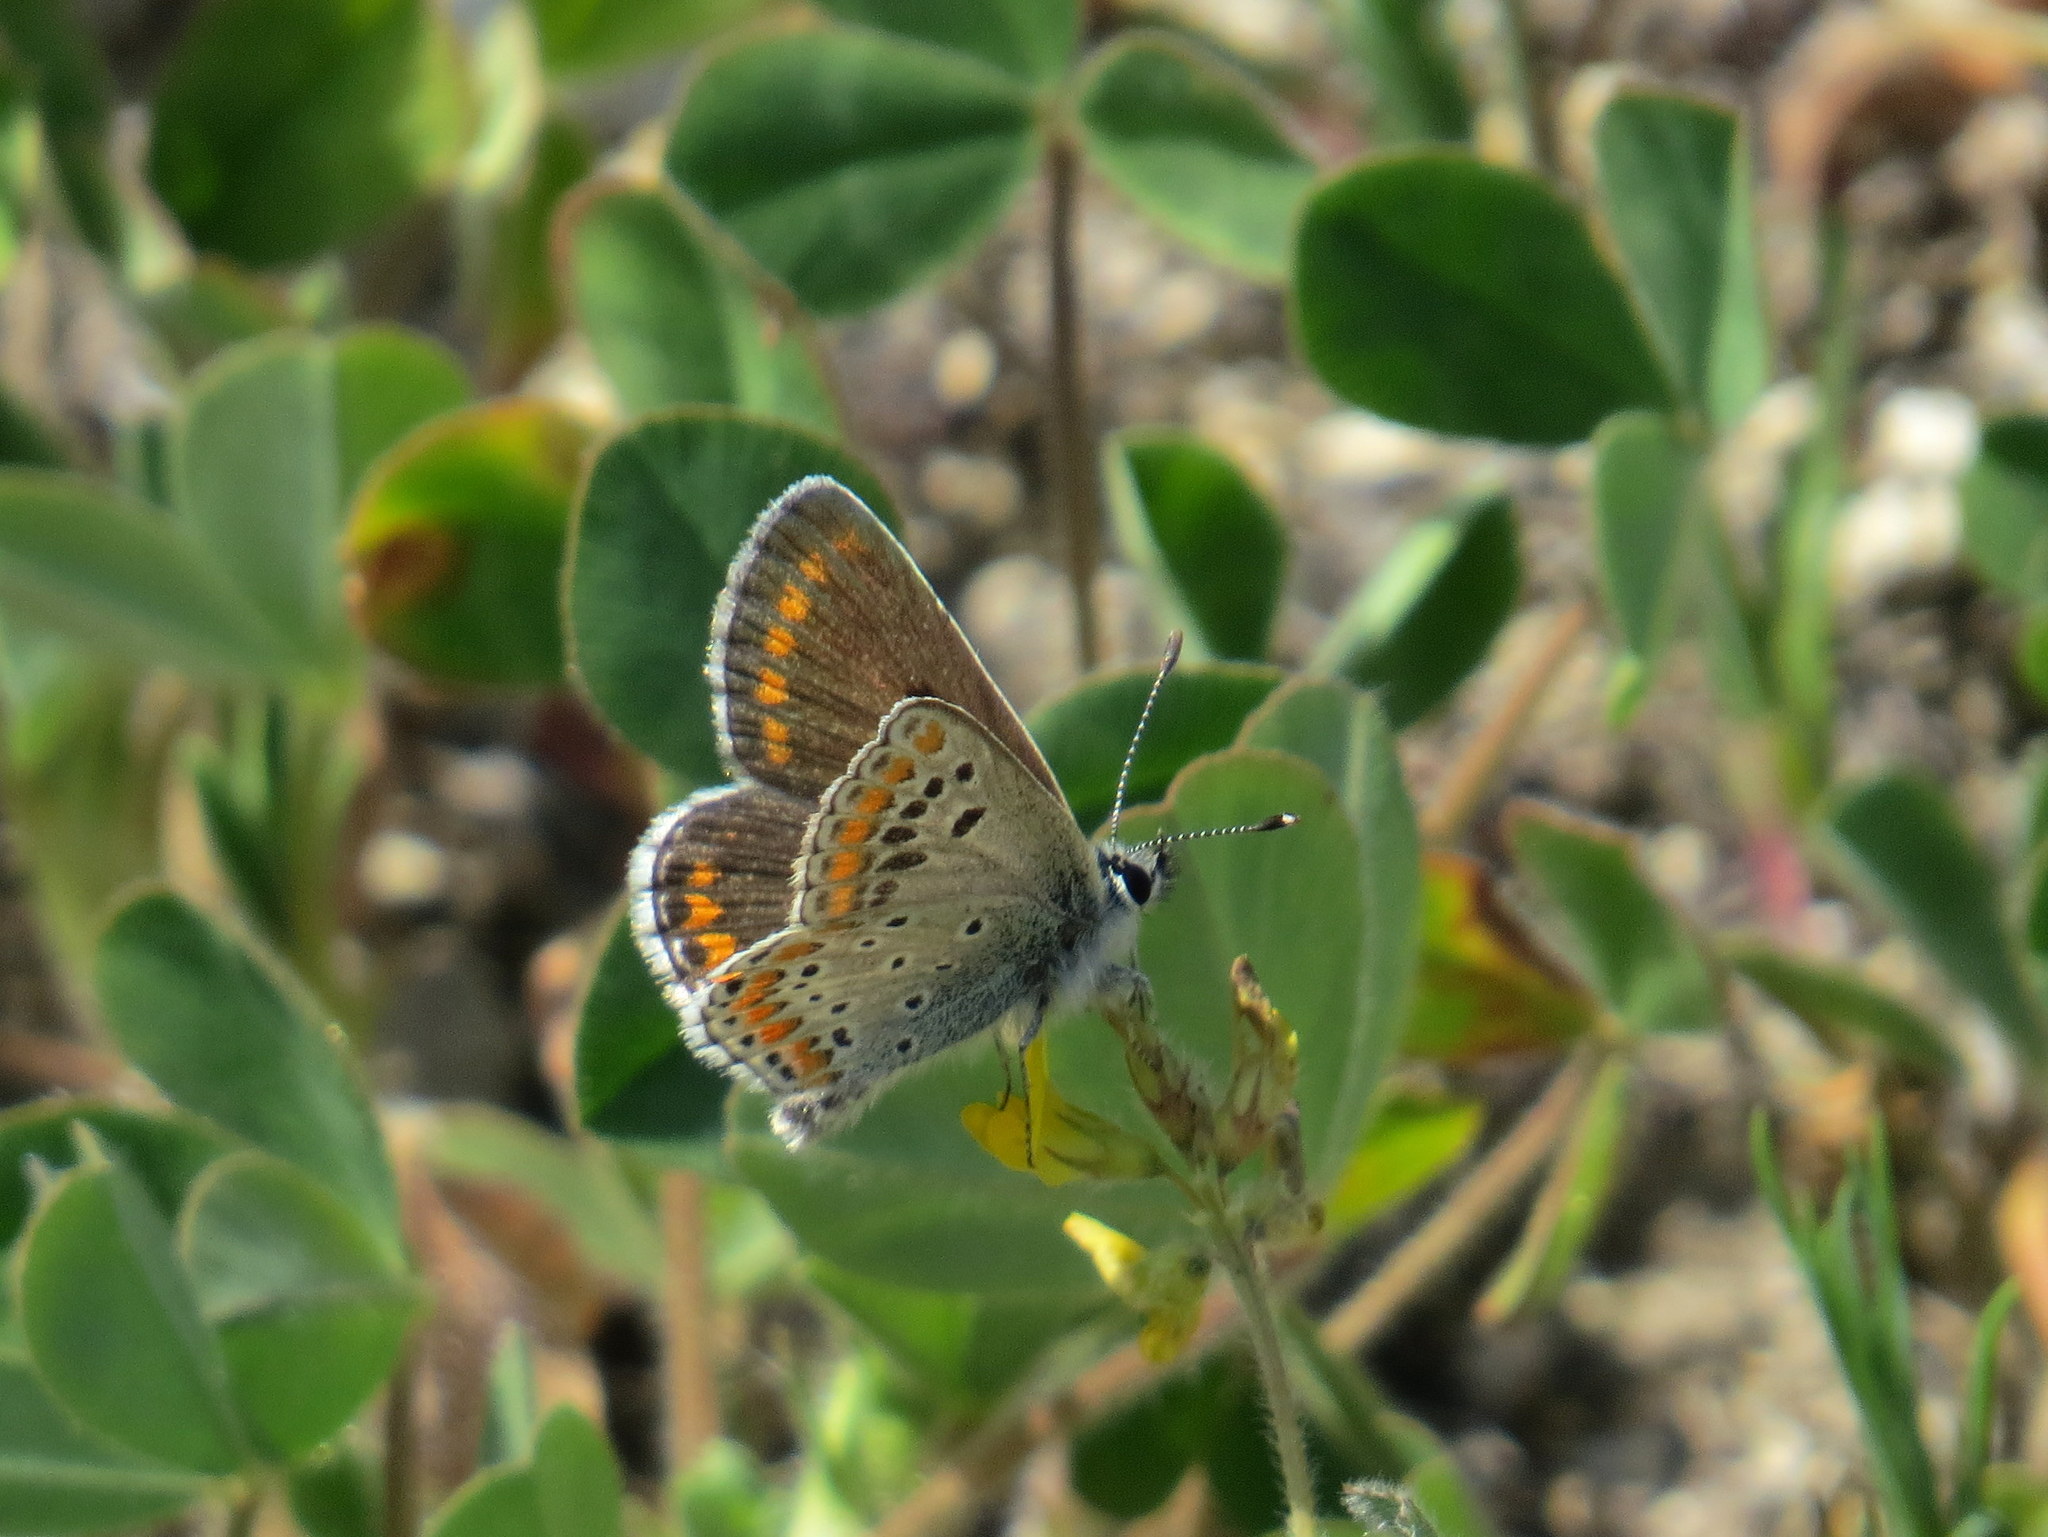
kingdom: Animalia
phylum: Arthropoda
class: Insecta
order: Lepidoptera
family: Lycaenidae
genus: Aricia
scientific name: Aricia agestis
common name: Brown argus
